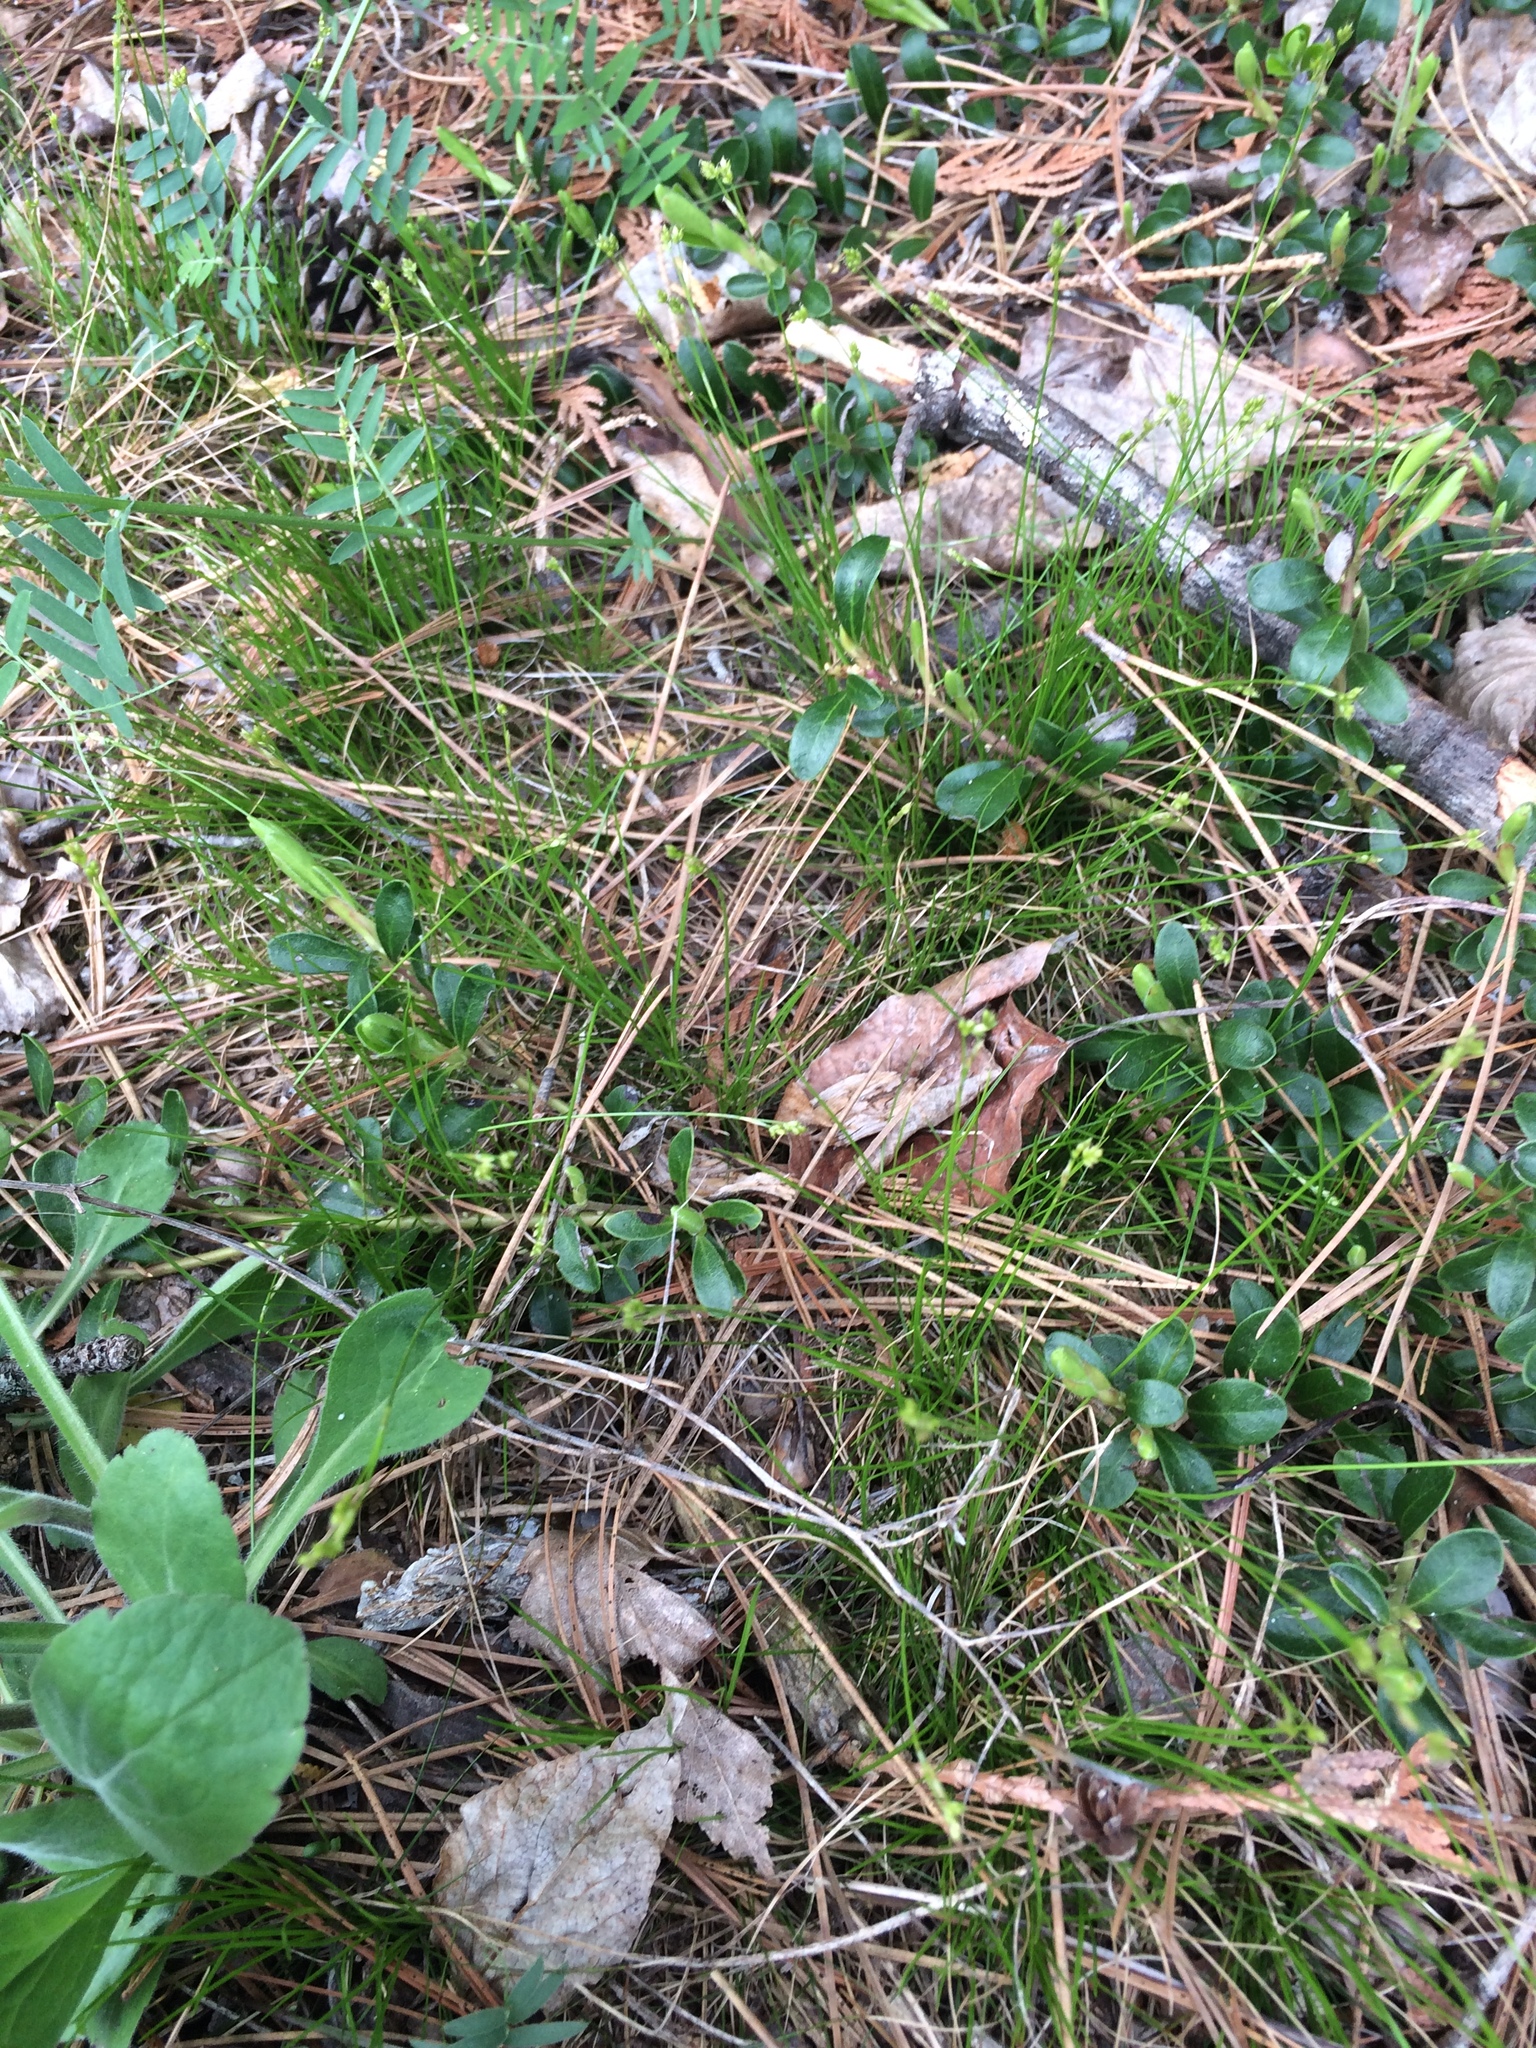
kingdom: Plantae
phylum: Tracheophyta
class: Liliopsida
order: Poales
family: Cyperaceae
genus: Carex
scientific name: Carex eburnea
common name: Bristle-leaved sedge
